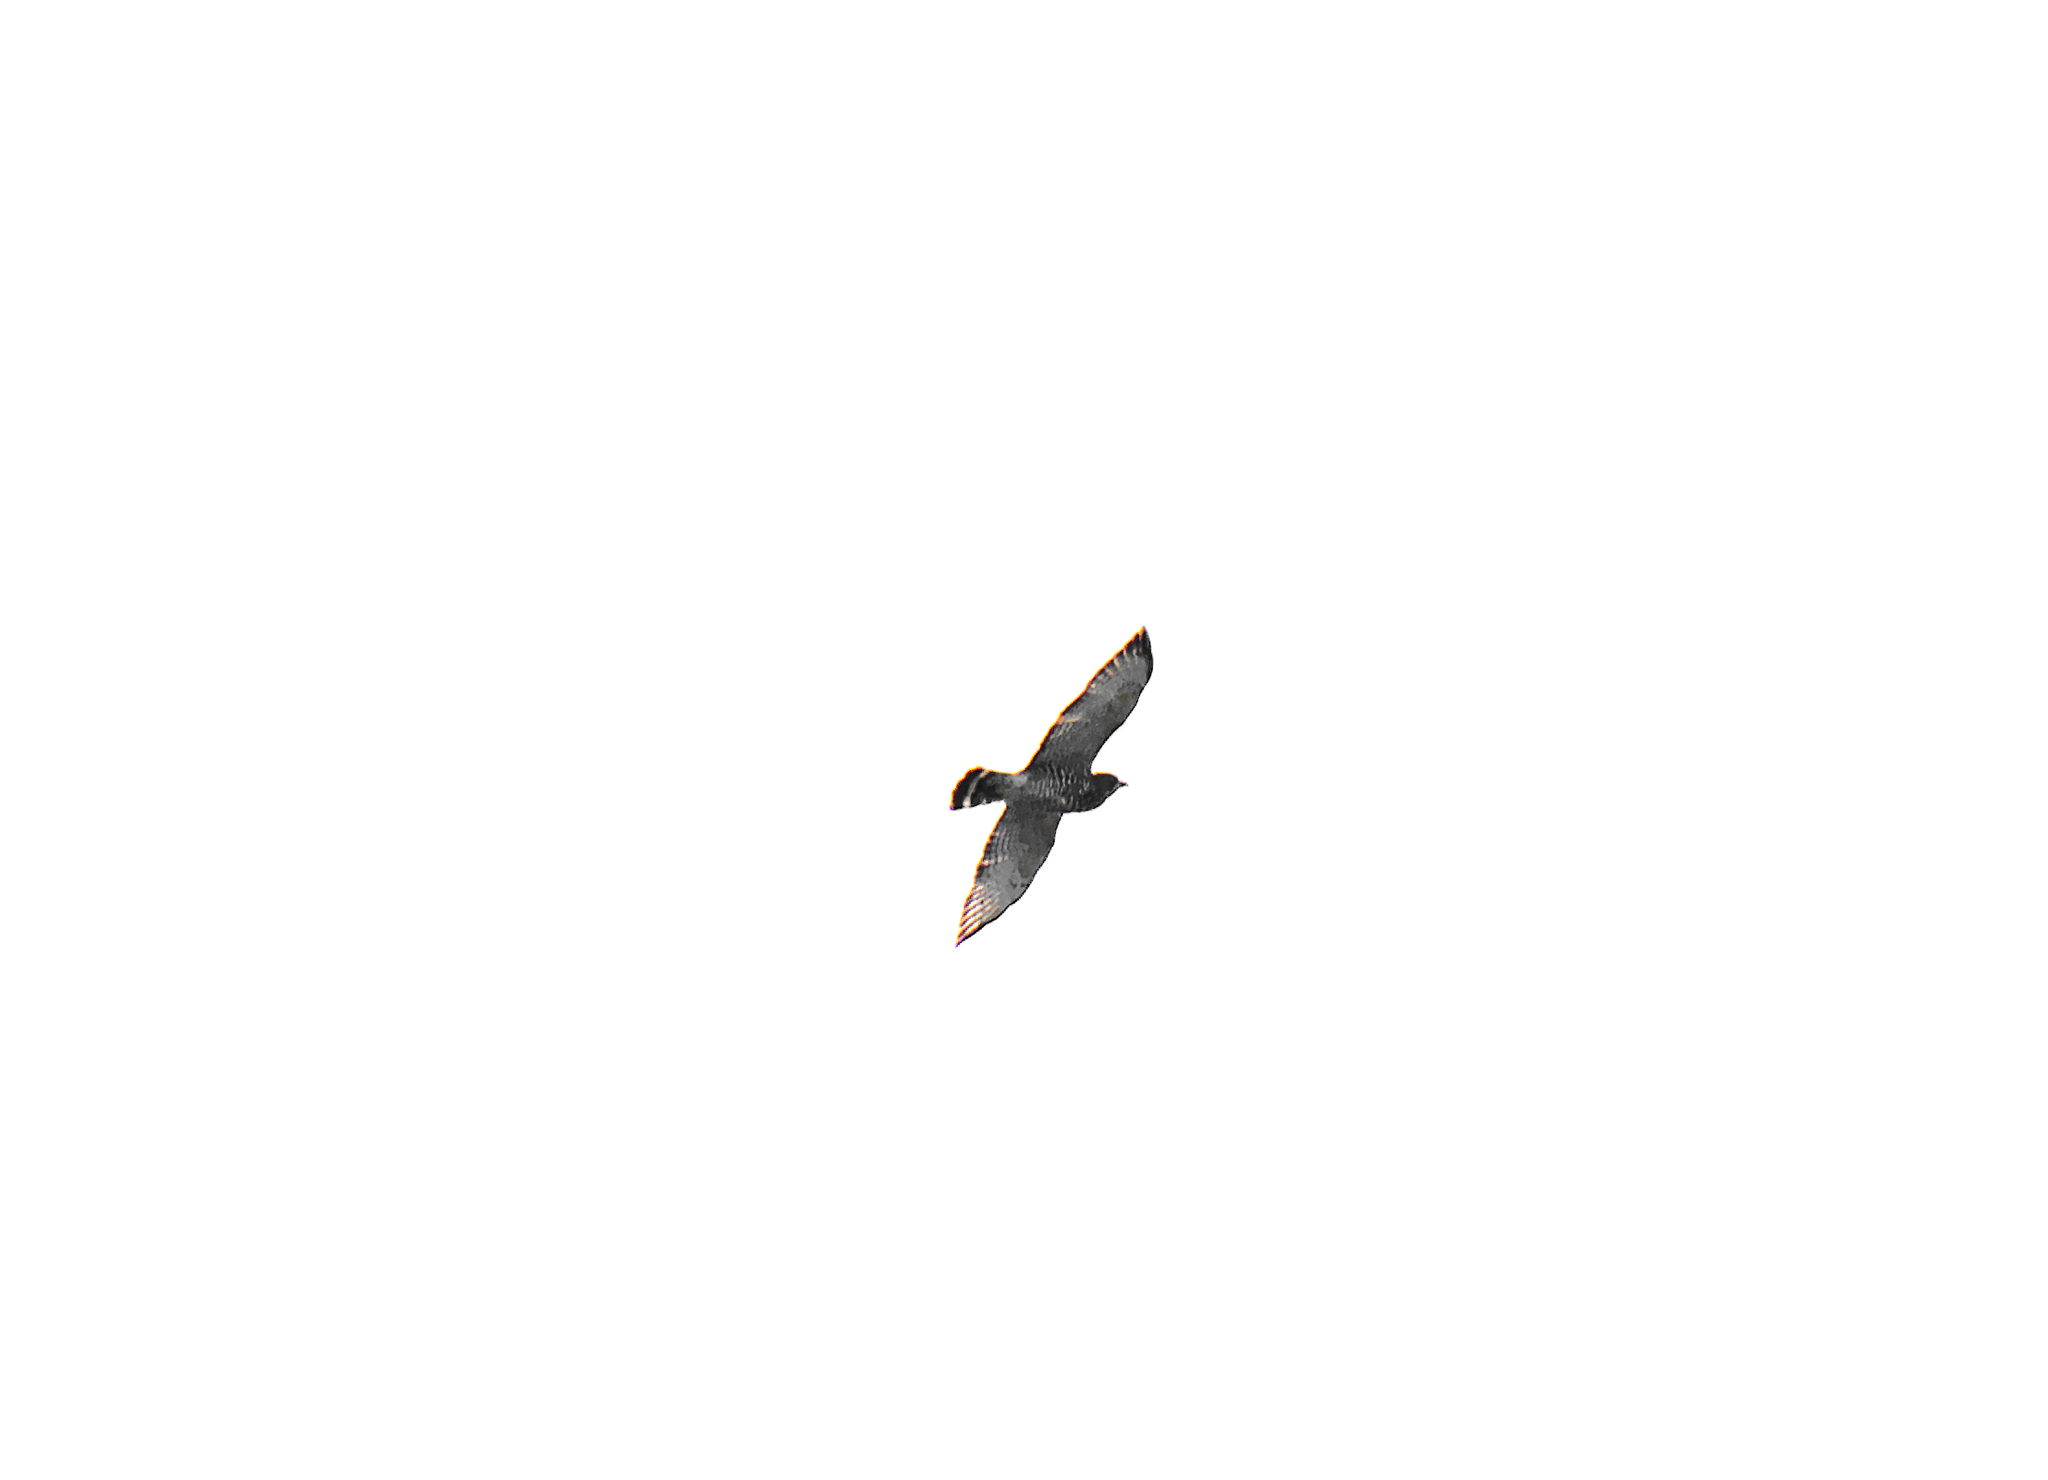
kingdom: Animalia
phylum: Chordata
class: Aves
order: Accipitriformes
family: Accipitridae
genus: Buteo
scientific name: Buteo platypterus
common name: Broad-winged hawk
